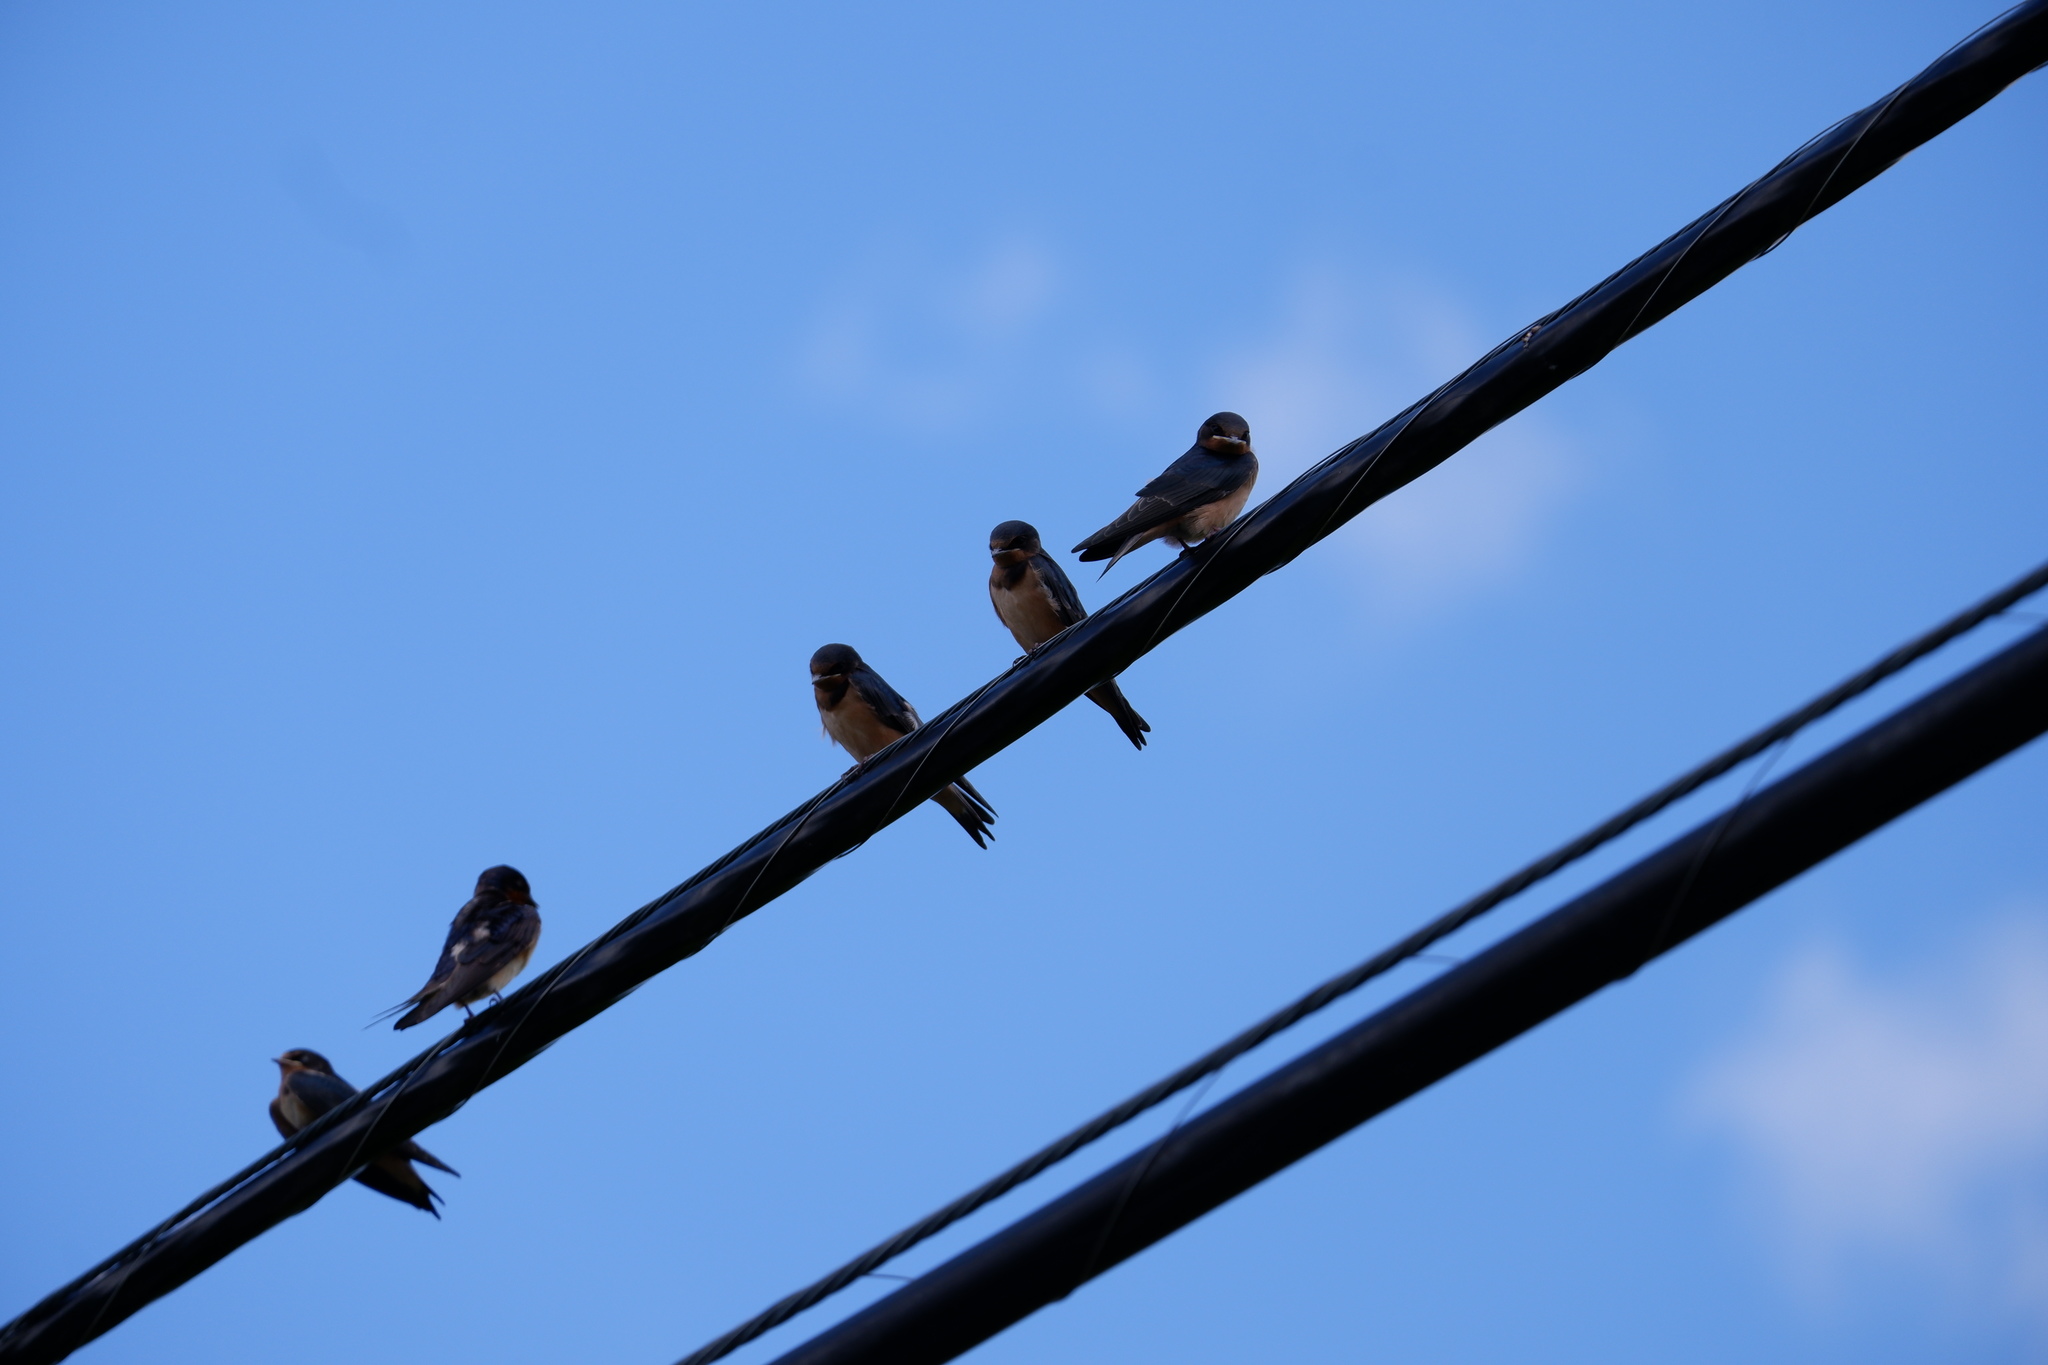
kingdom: Animalia
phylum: Chordata
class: Aves
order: Passeriformes
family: Hirundinidae
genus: Hirundo
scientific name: Hirundo rustica
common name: Barn swallow
